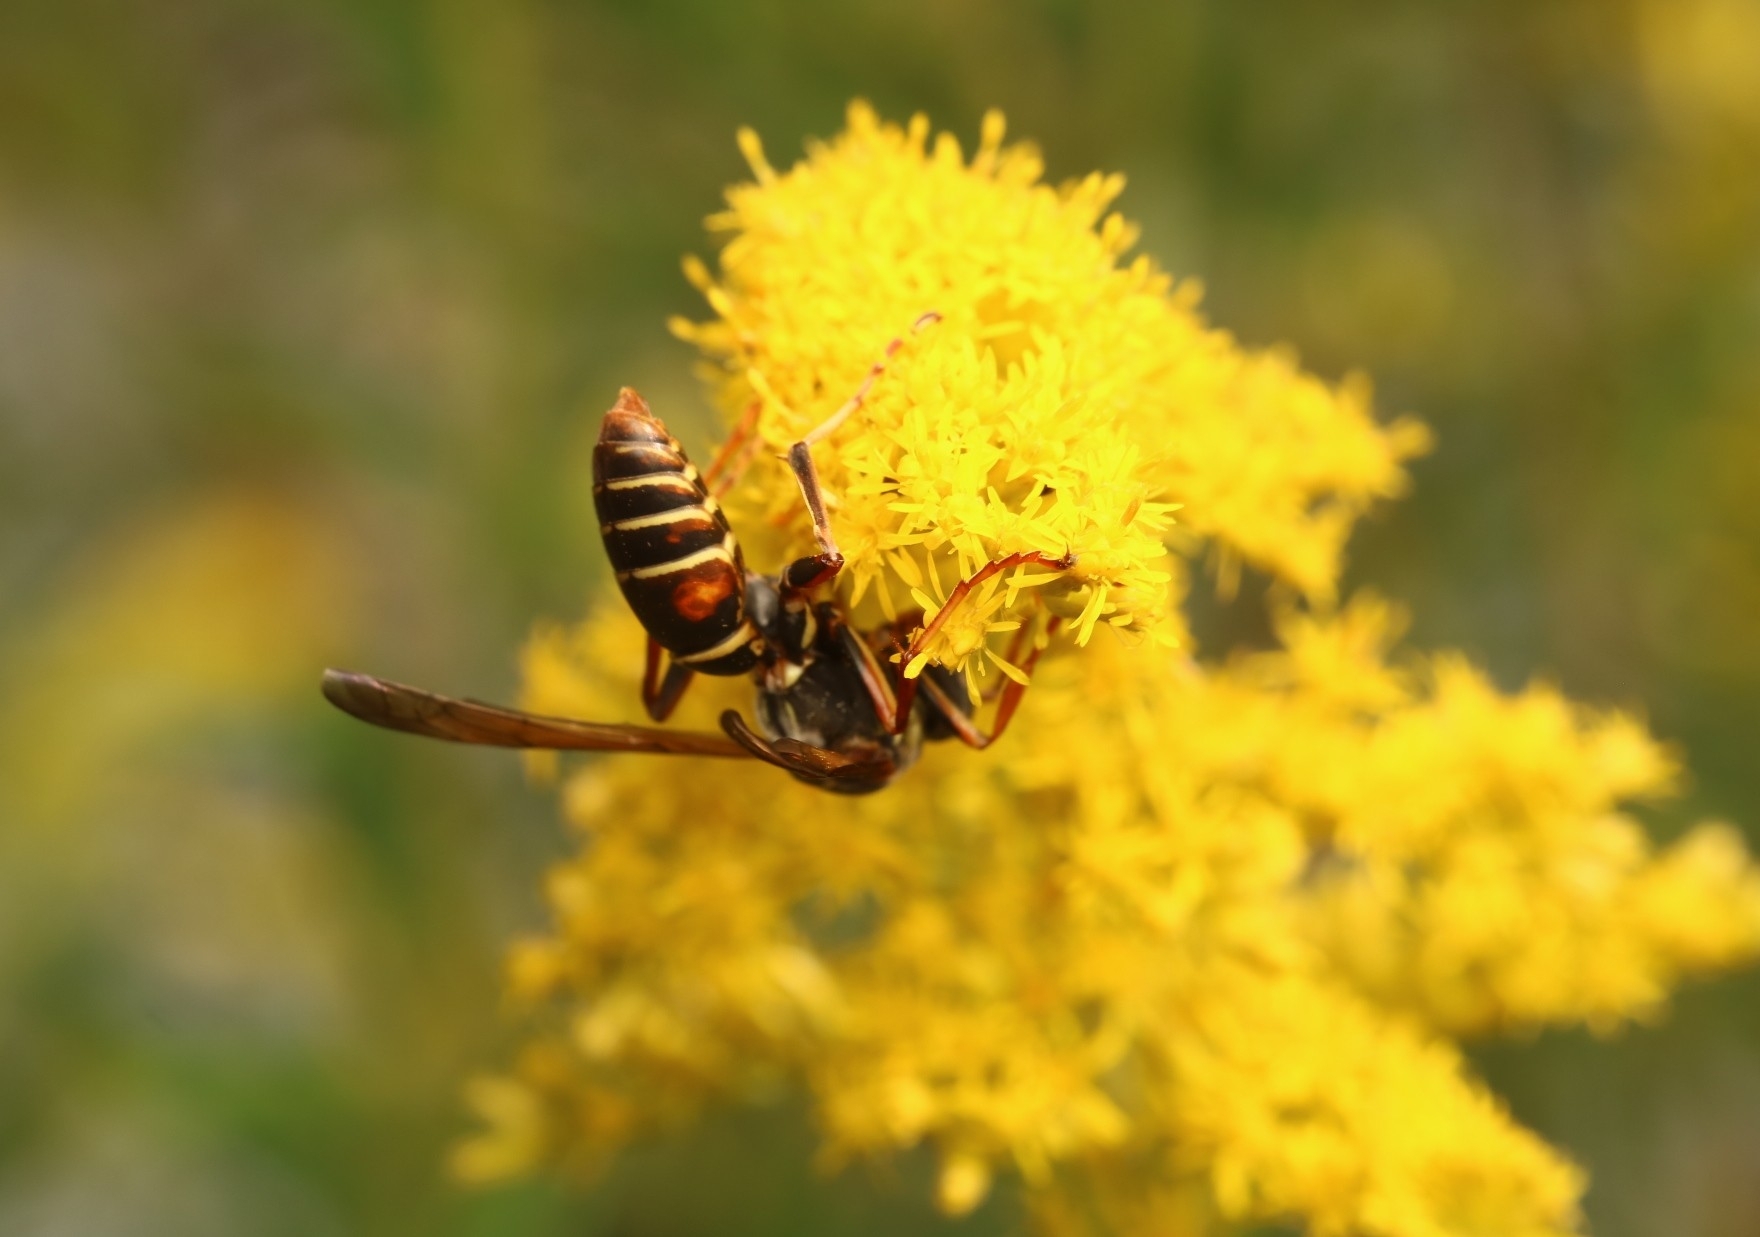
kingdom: Animalia
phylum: Arthropoda
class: Insecta
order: Hymenoptera
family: Eumenidae
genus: Polistes
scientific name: Polistes fuscatus
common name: Dark paper wasp
